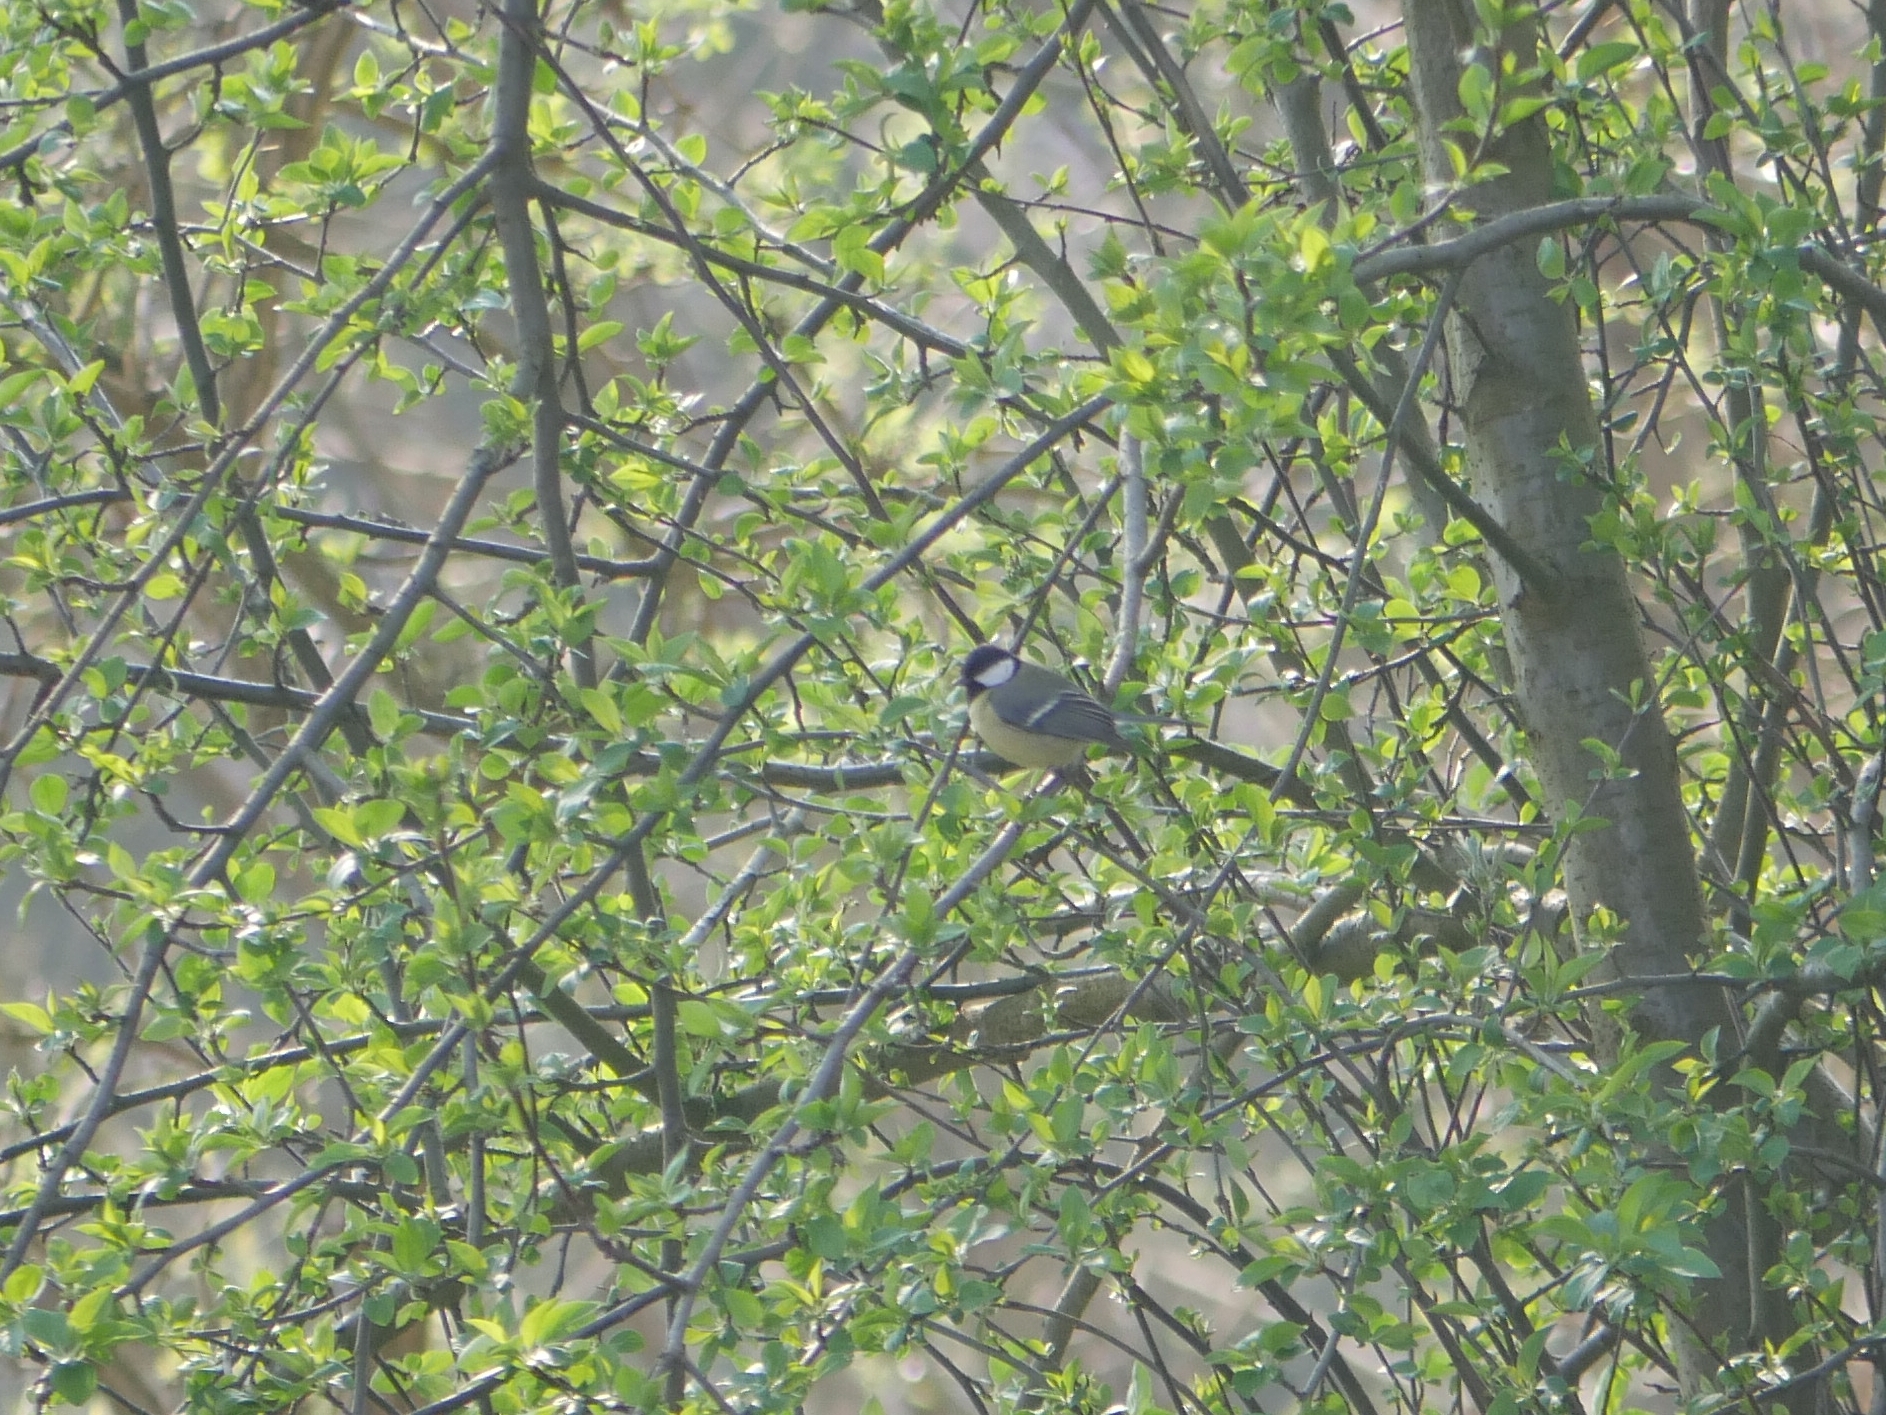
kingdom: Animalia
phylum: Chordata
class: Aves
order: Passeriformes
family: Paridae
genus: Parus
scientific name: Parus major
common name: Great tit
